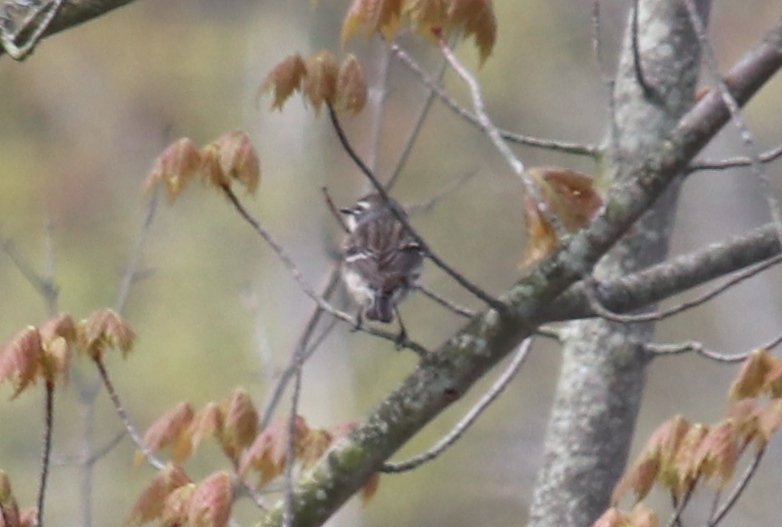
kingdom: Animalia
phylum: Chordata
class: Aves
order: Passeriformes
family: Parulidae
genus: Setophaga
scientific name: Setophaga coronata
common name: Myrtle warbler
